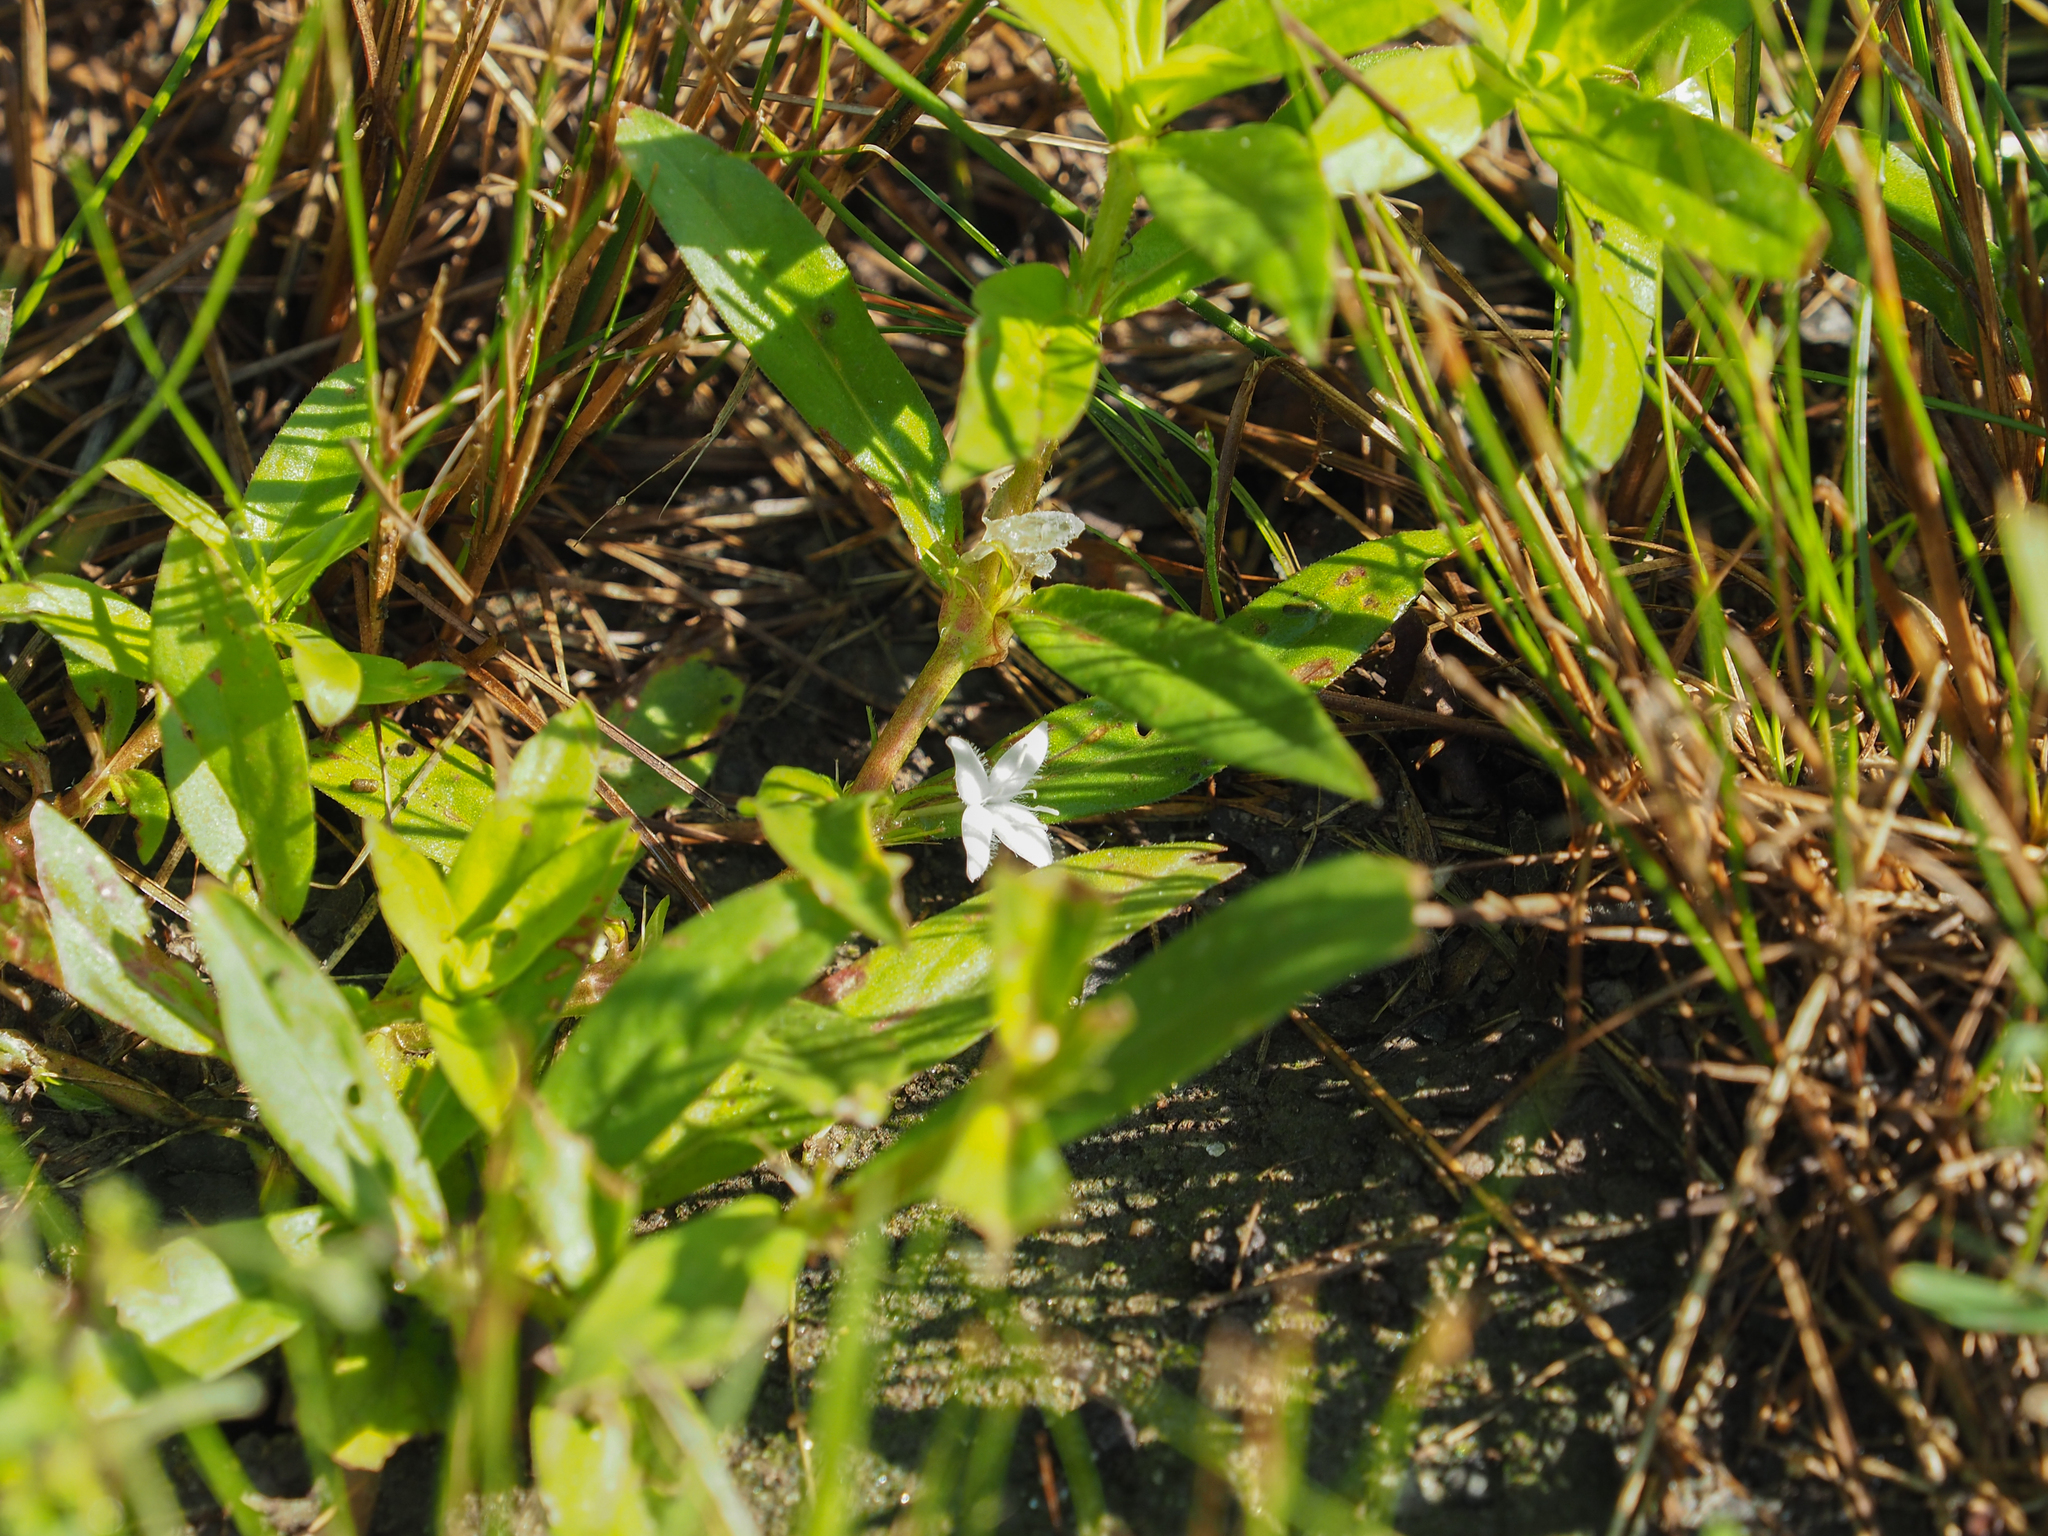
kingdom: Plantae
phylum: Tracheophyta
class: Magnoliopsida
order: Gentianales
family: Rubiaceae
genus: Diodia
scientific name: Diodia virginiana
